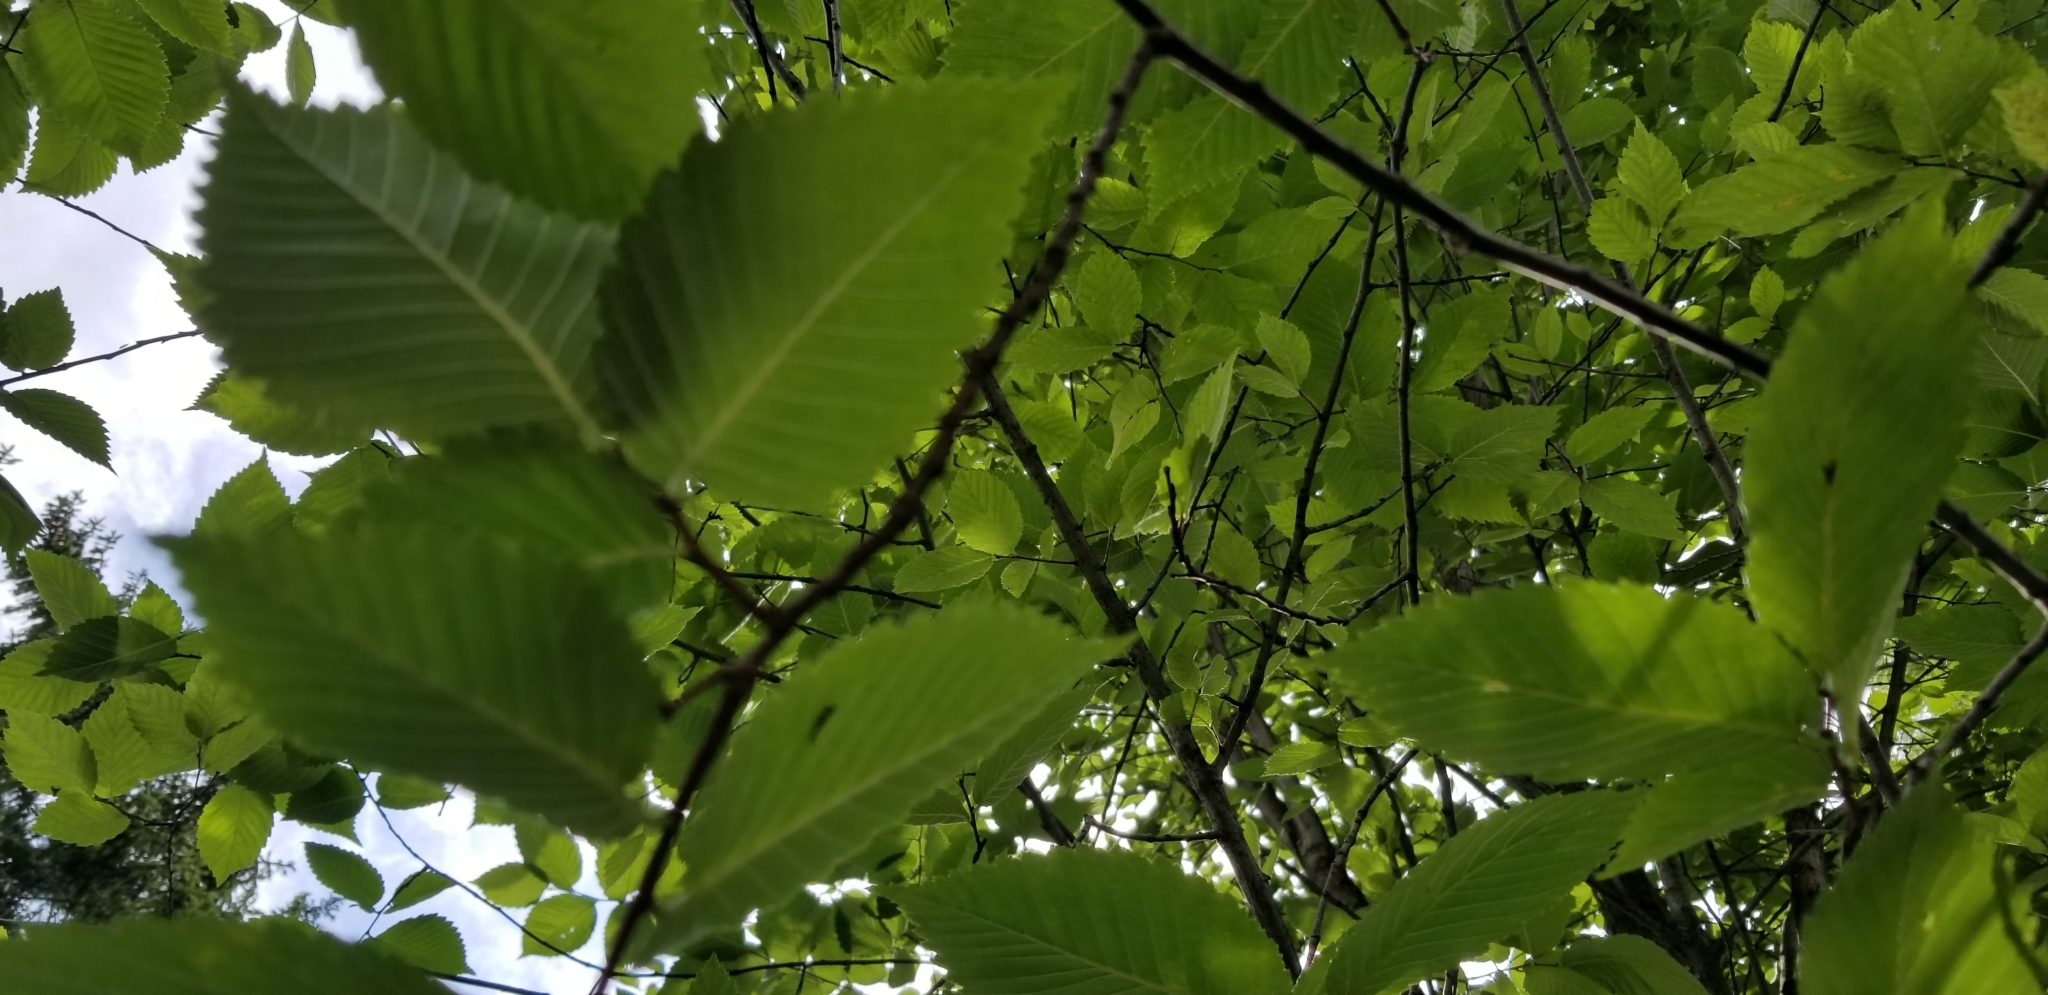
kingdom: Fungi
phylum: Ascomycota
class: Candelariomycetes
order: Candelariales
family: Candelariaceae
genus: Candelaria
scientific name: Candelaria concolor
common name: Candleflame lichen
